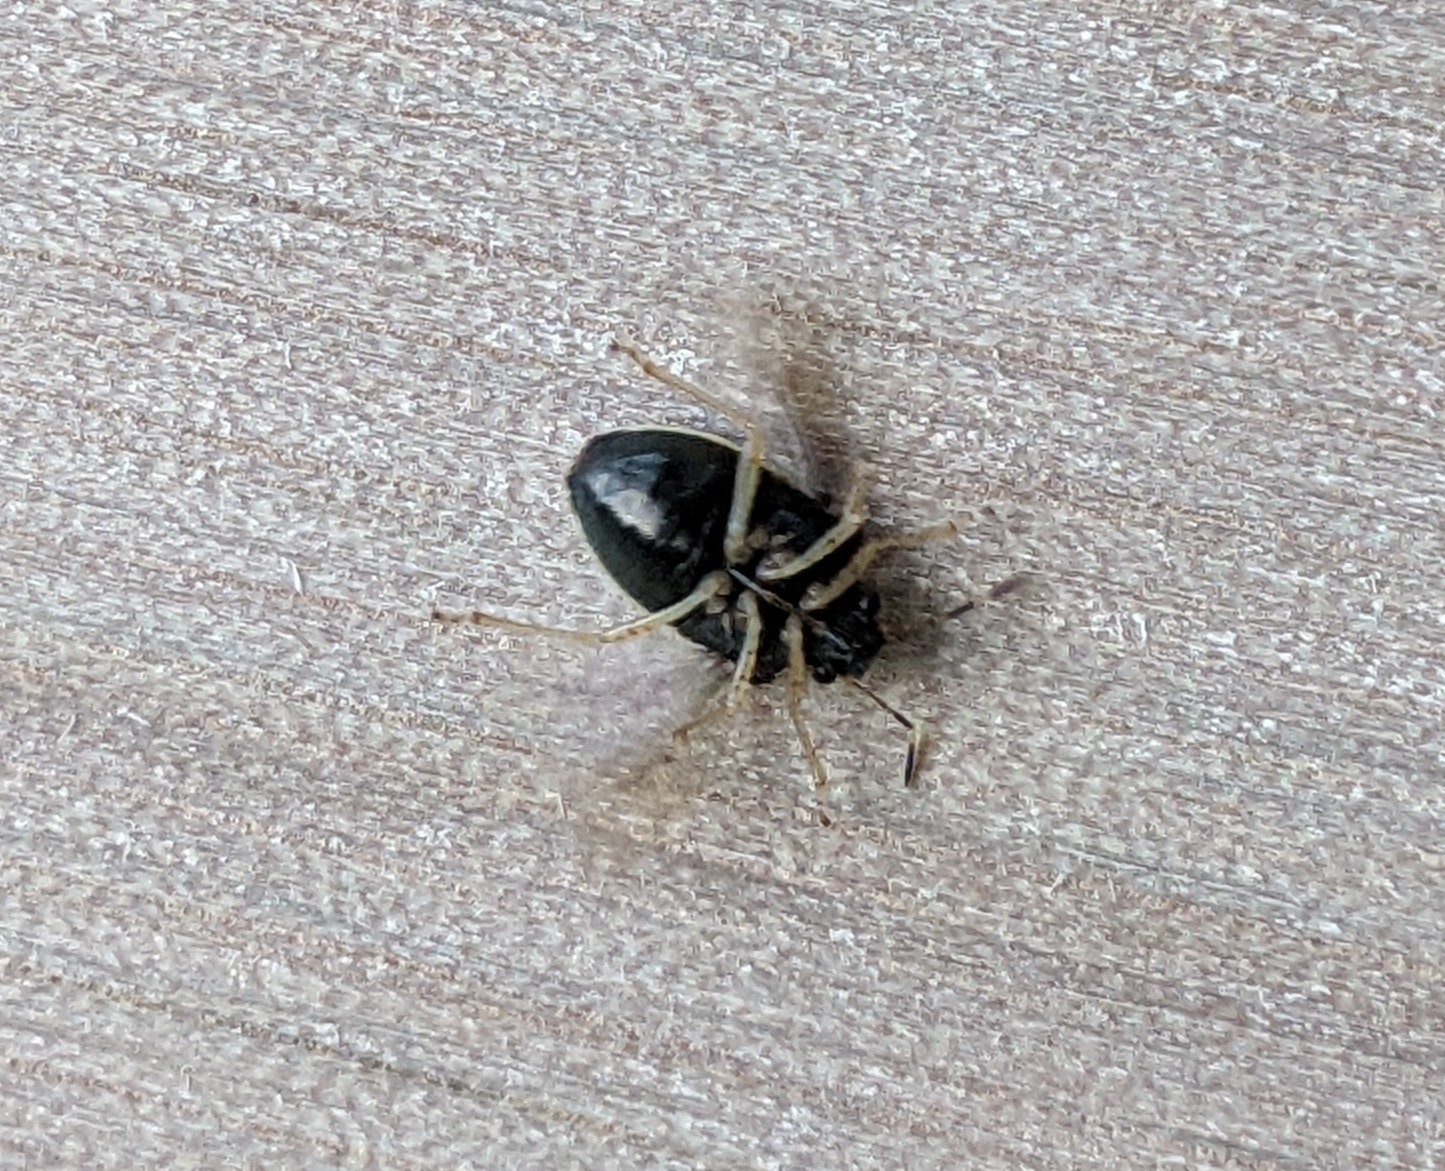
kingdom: Animalia
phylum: Arthropoda
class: Insecta
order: Hemiptera
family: Pentatomidae
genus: Mormidea
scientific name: Mormidea lugens
